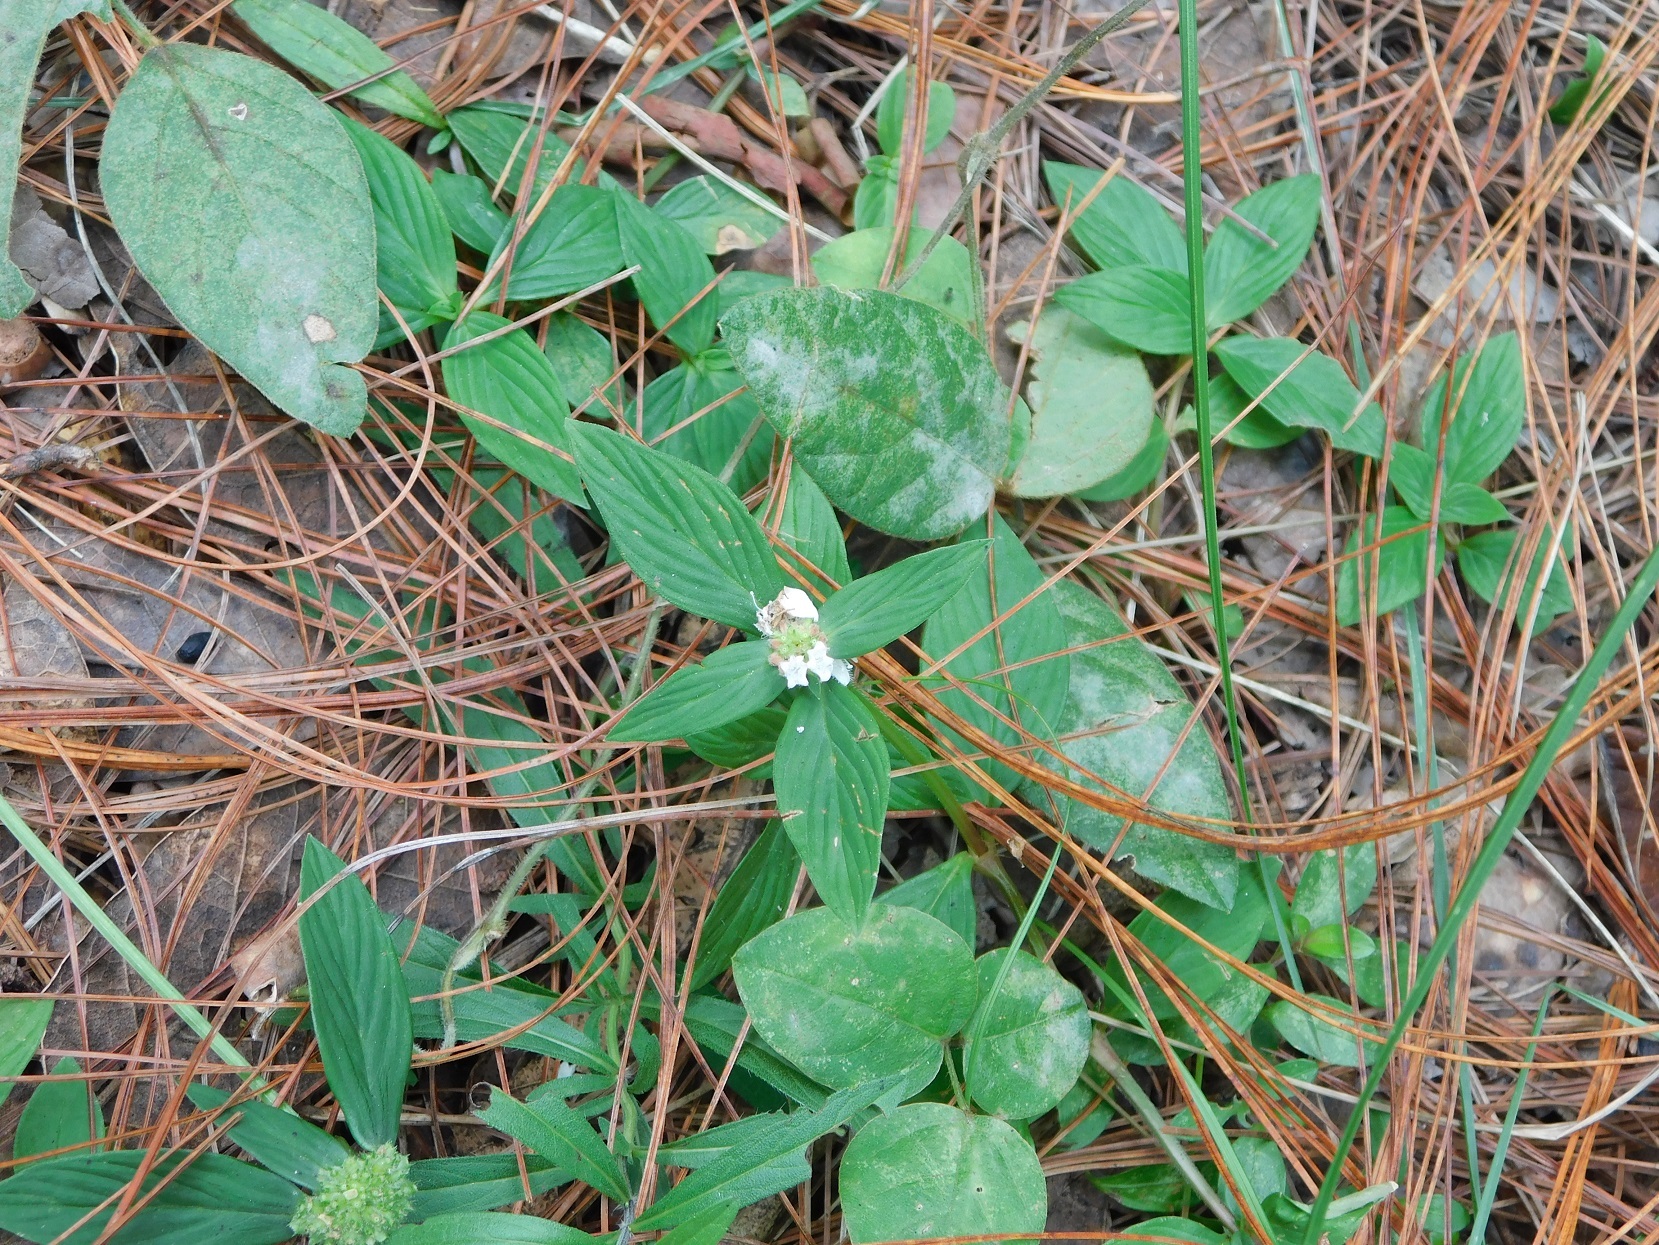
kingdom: Plantae
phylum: Tracheophyta
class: Magnoliopsida
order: Gentianales
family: Rubiaceae
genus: Spermacoce
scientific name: Spermacoce remota
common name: Woodland false buttonweed
